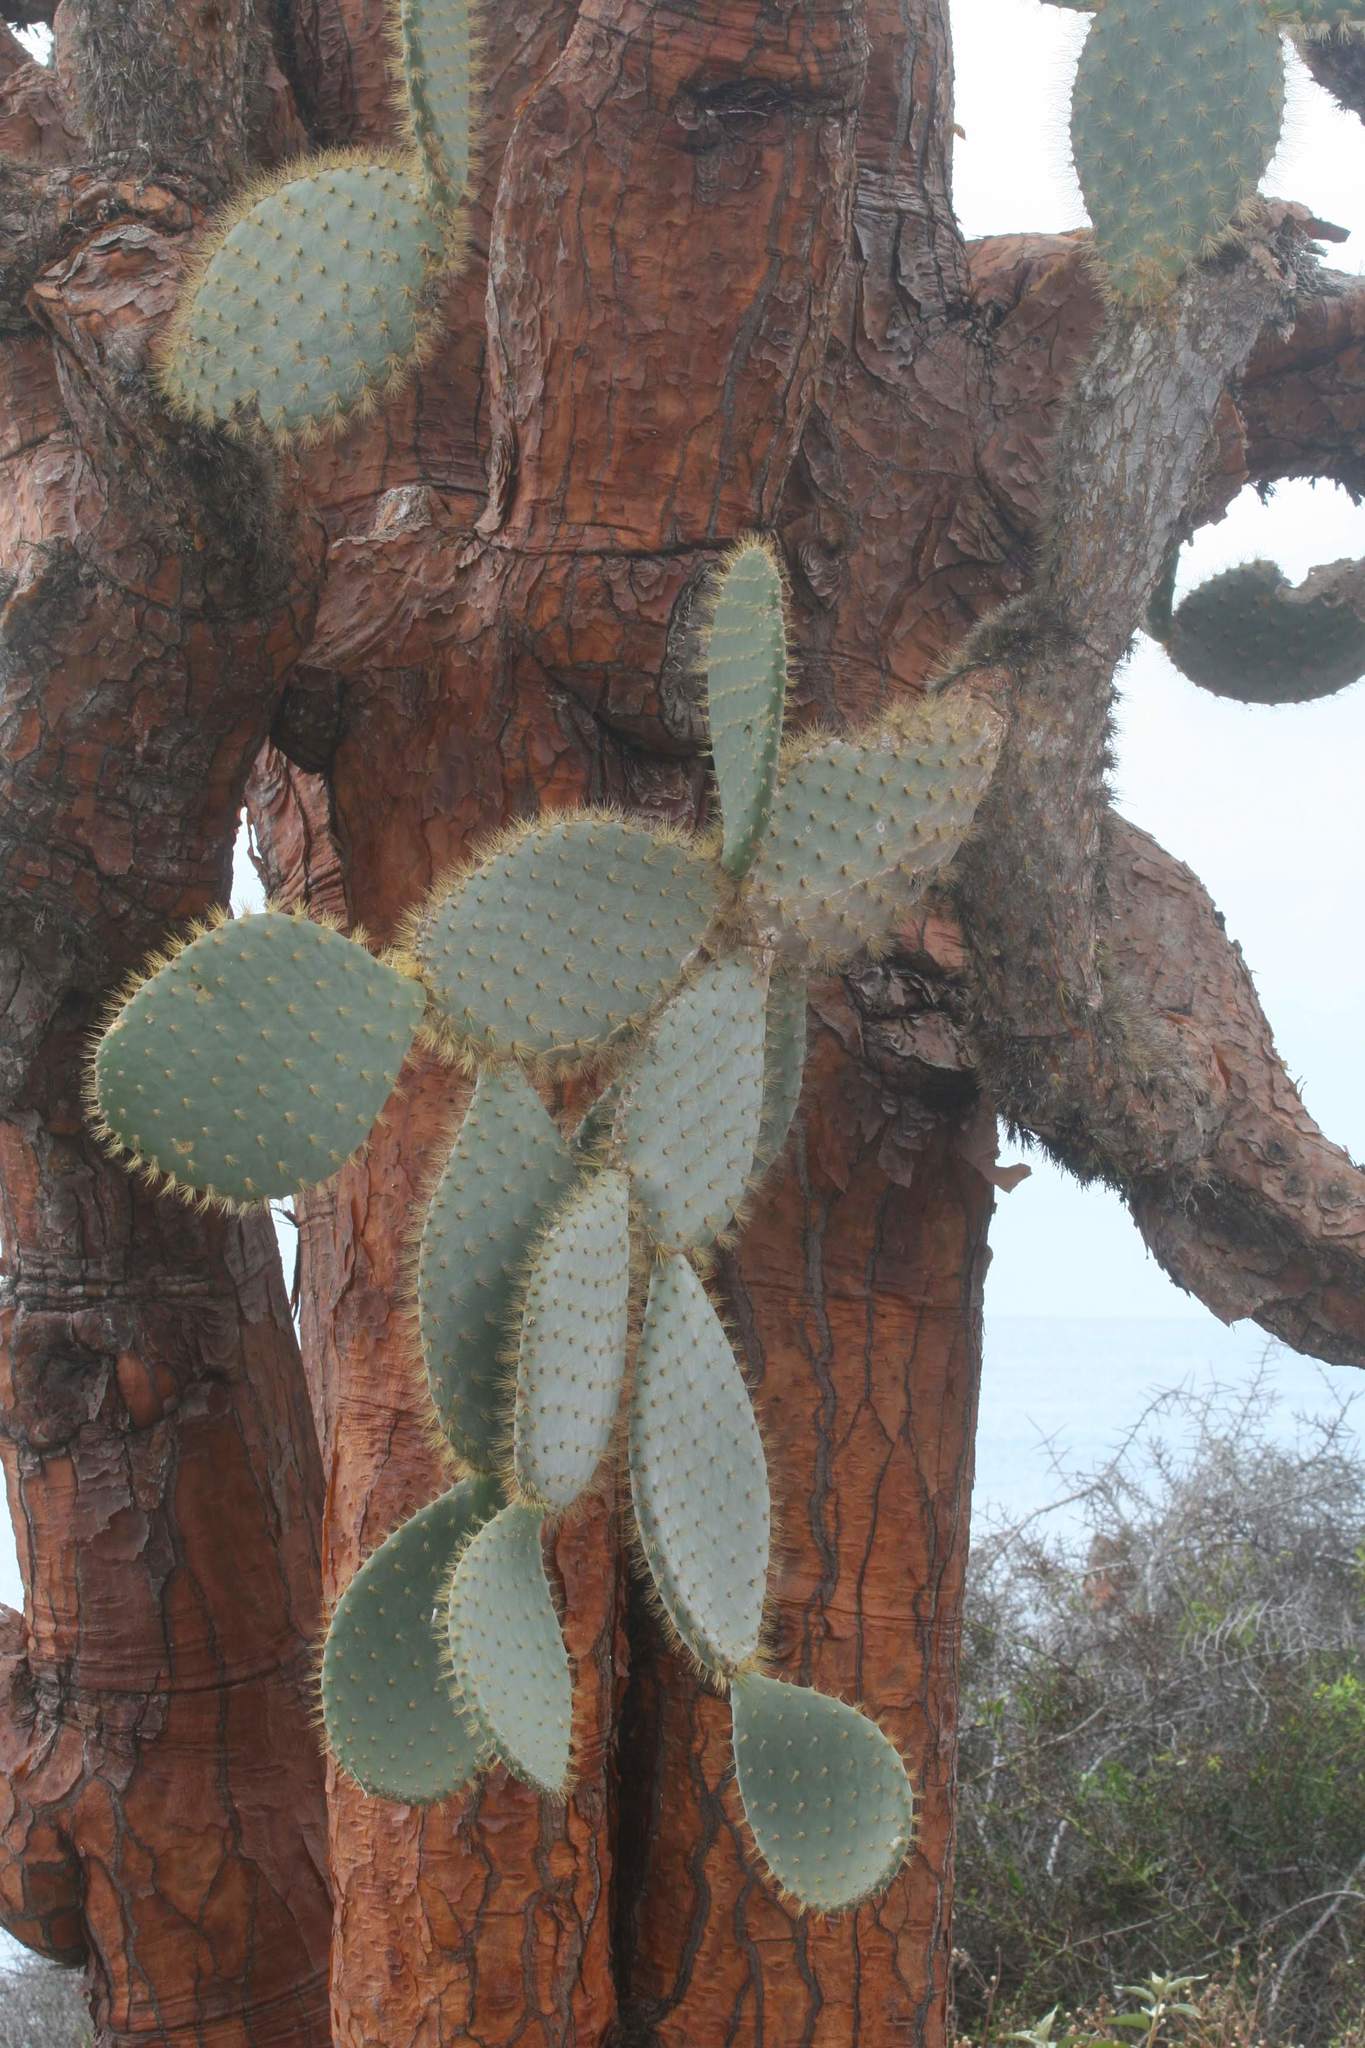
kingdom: Plantae
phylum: Tracheophyta
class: Magnoliopsida
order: Caryophyllales
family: Cactaceae
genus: Opuntia
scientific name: Opuntia galapageia
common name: Galápagos prickly pear
